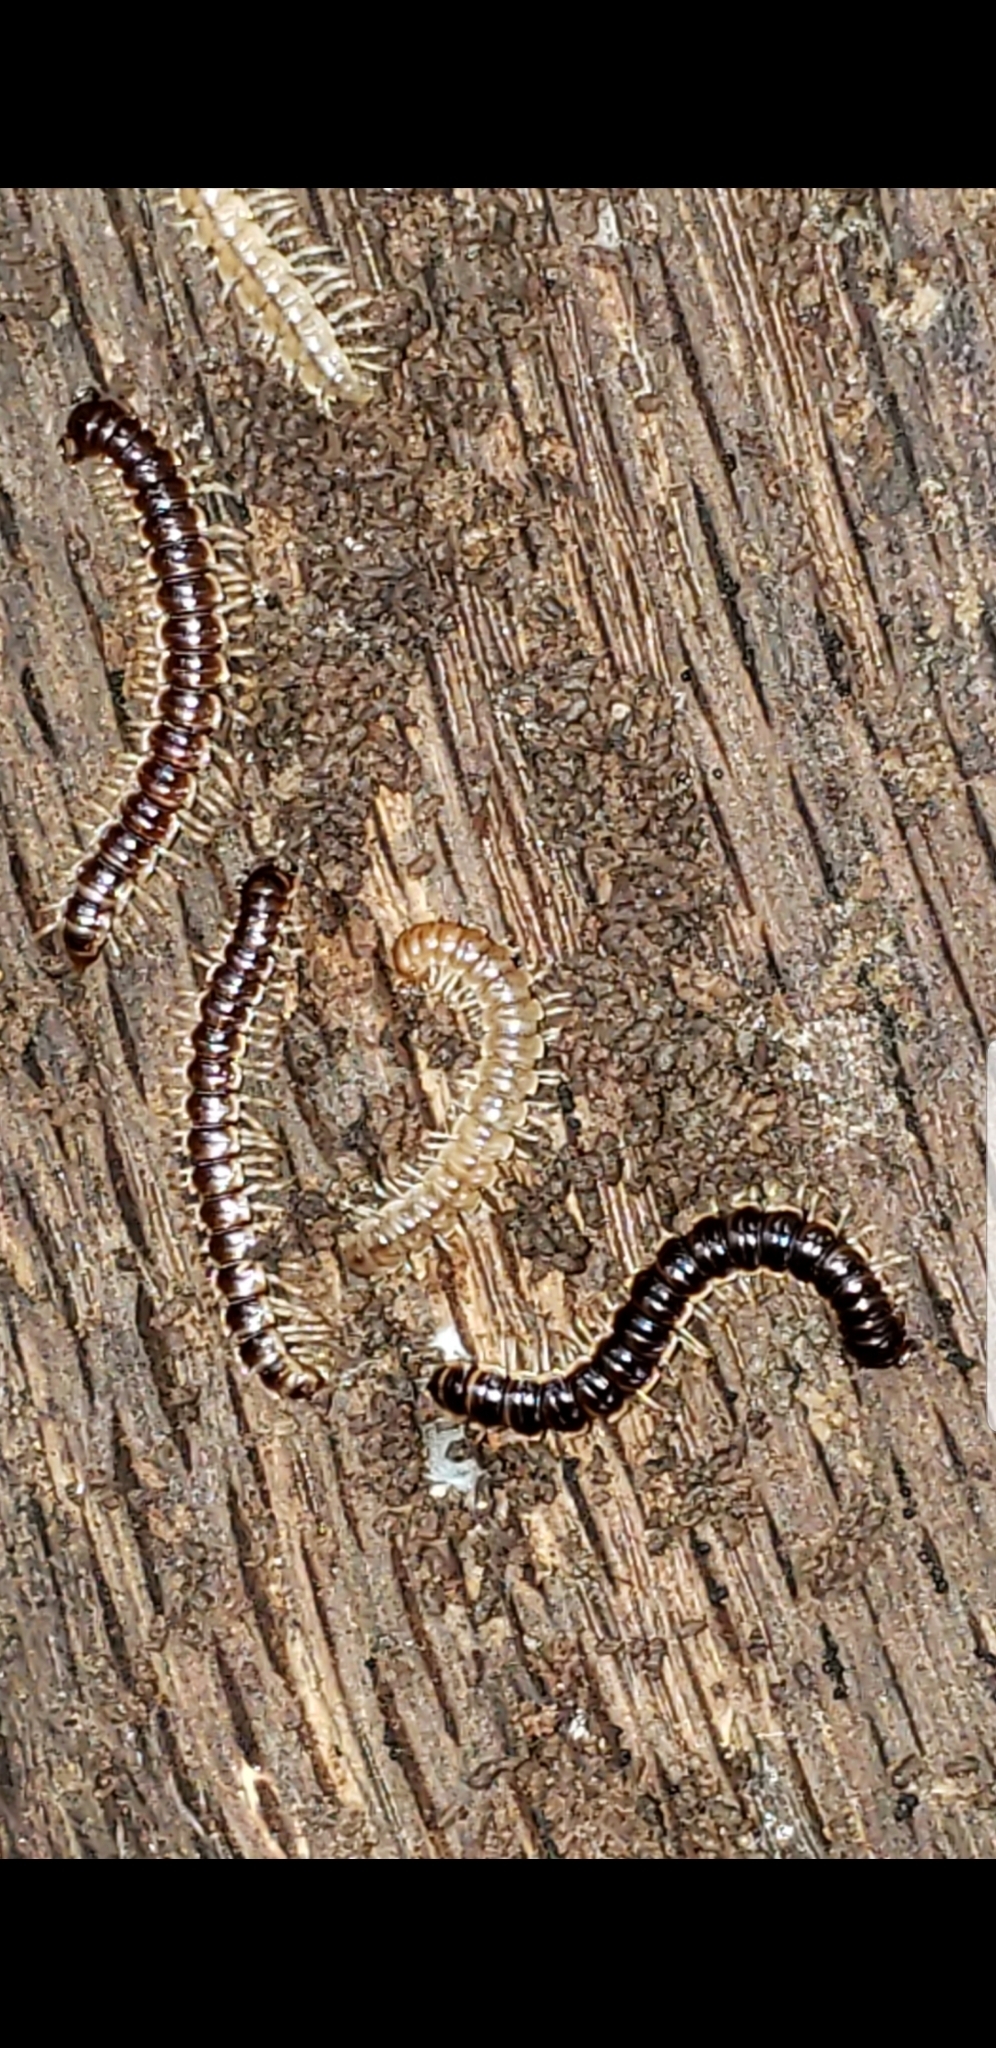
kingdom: Animalia
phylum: Arthropoda
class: Diplopoda
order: Polydesmida
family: Paradoxosomatidae
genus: Oxidus
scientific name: Oxidus gracilis
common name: Greenhouse millipede
